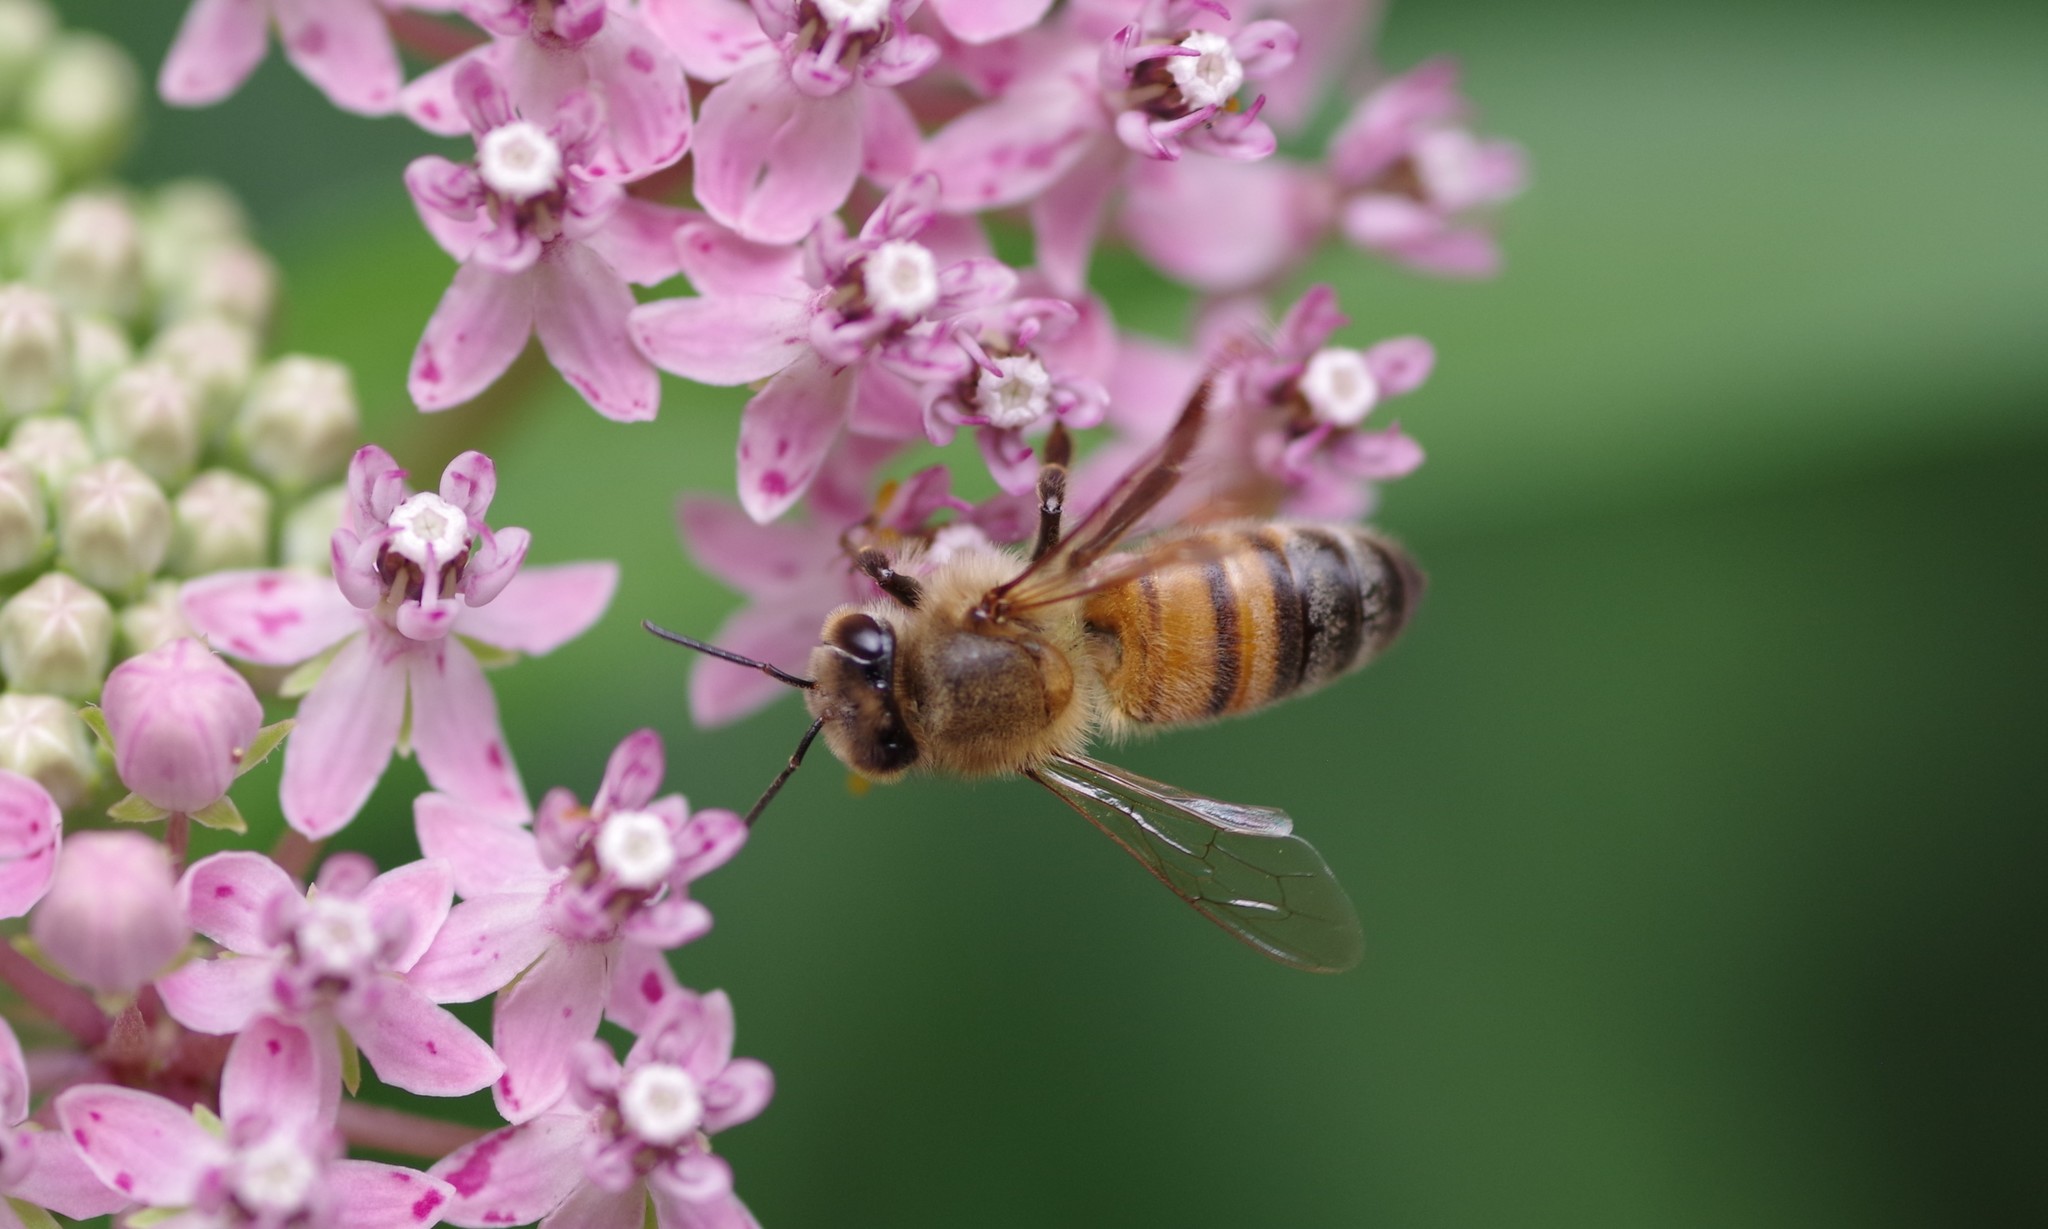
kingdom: Animalia
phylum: Arthropoda
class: Insecta
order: Hymenoptera
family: Apidae
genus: Apis
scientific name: Apis mellifera
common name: Honey bee
